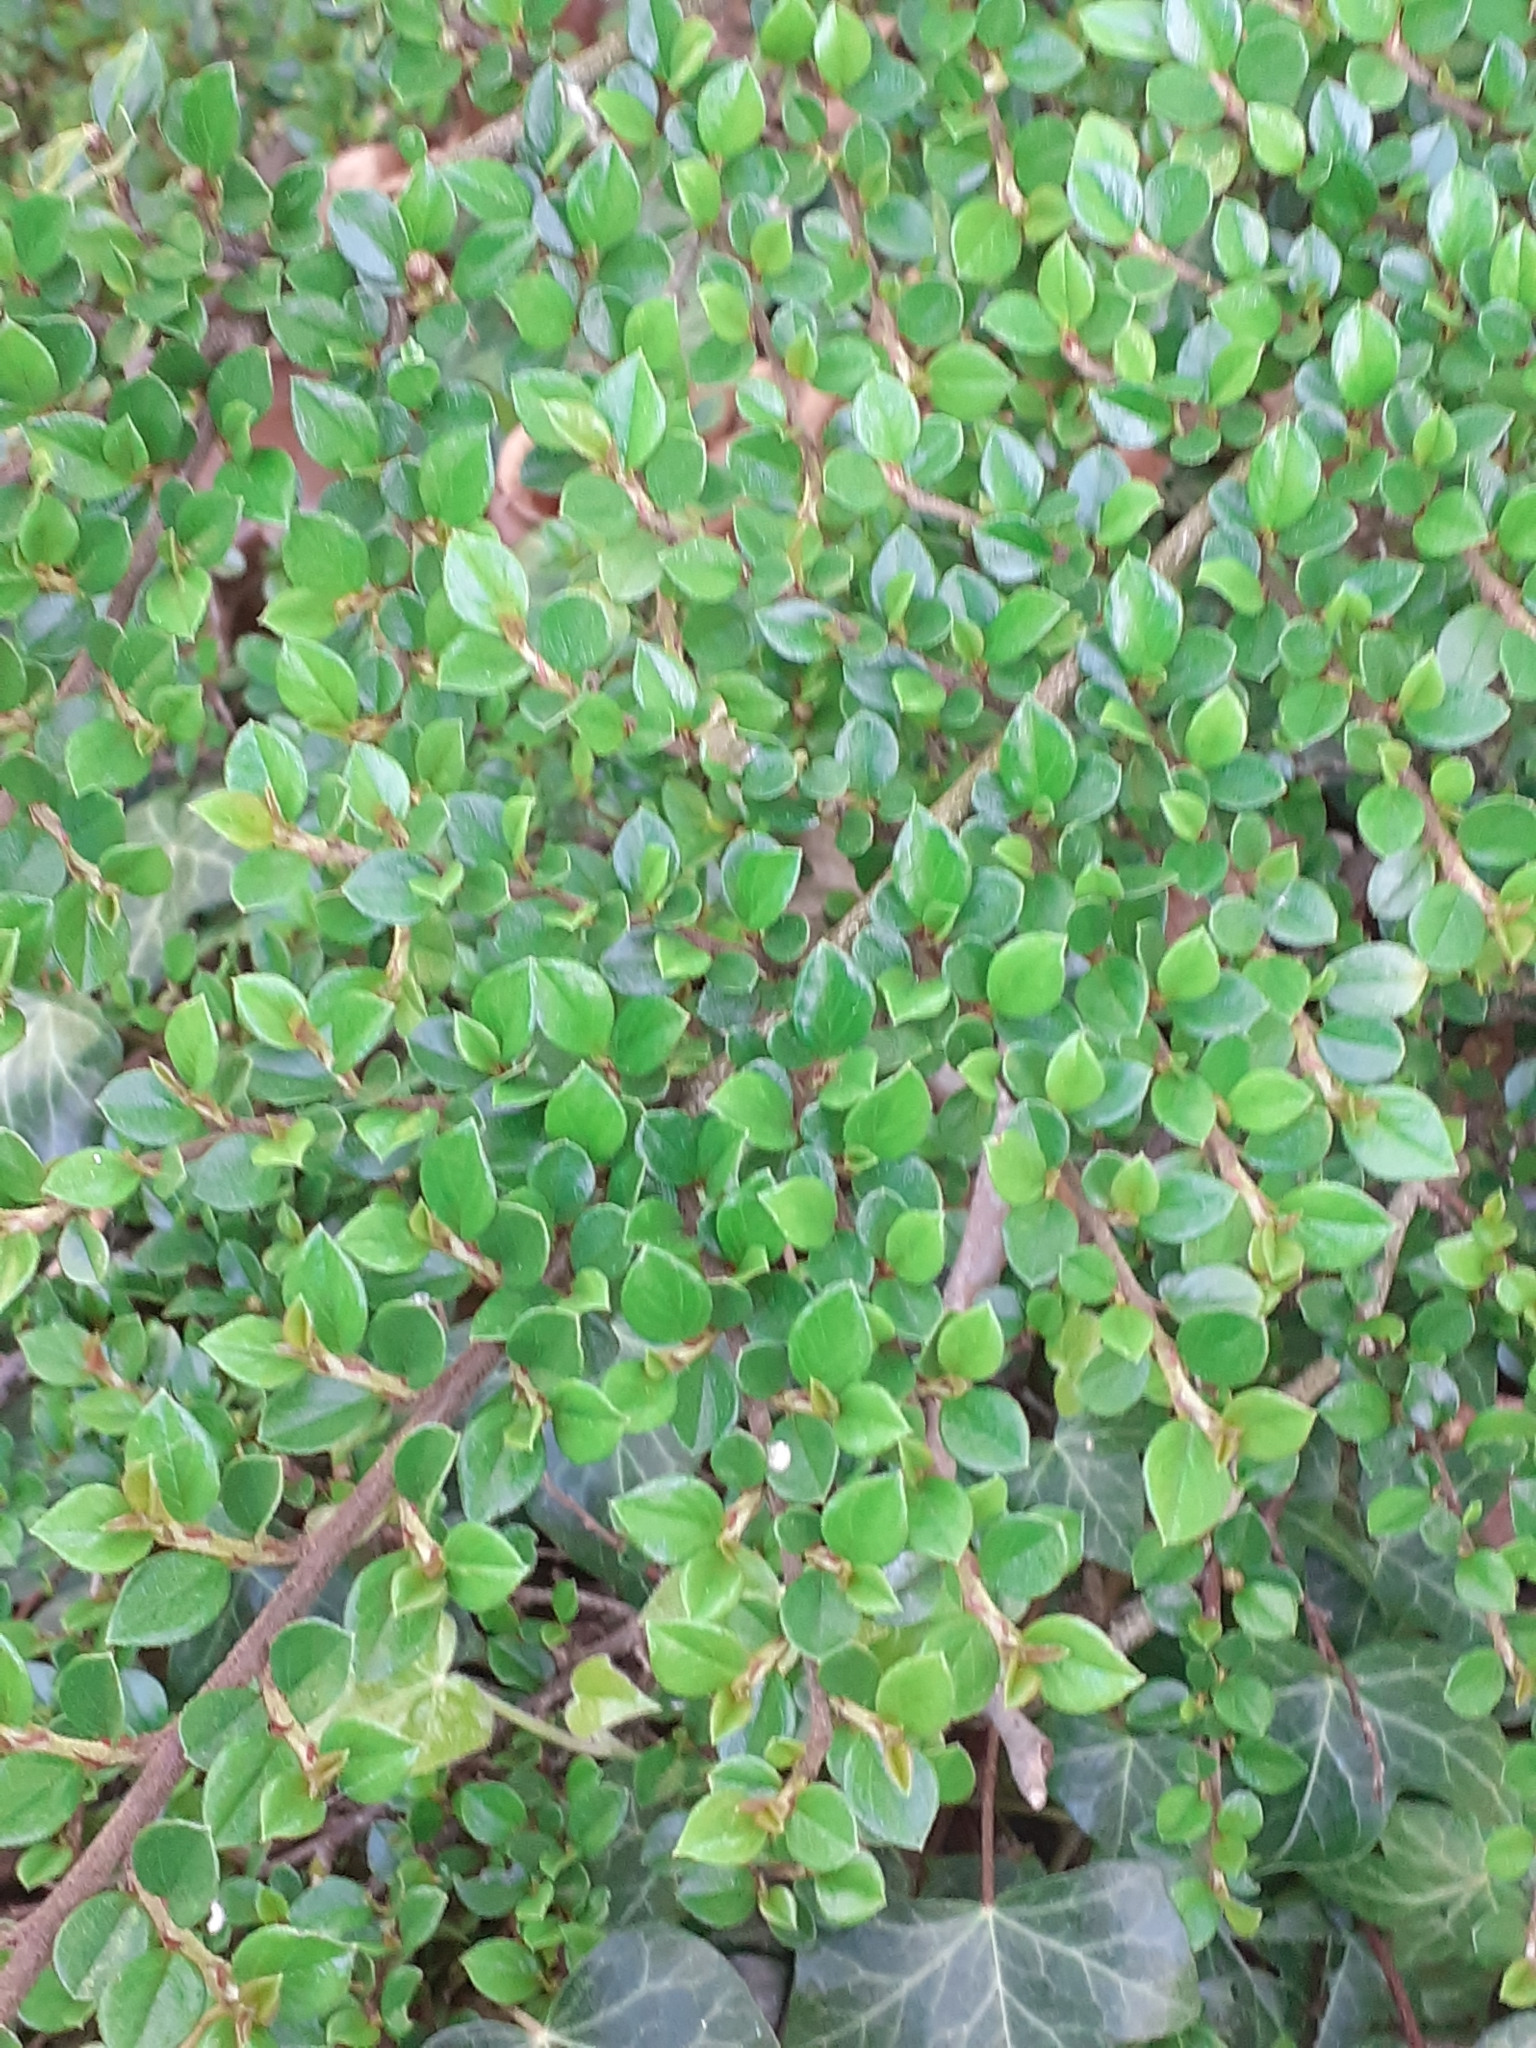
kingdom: Plantae
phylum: Tracheophyta
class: Magnoliopsida
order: Rosales
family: Rosaceae
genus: Cotoneaster
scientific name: Cotoneaster horizontalis
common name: Wall cotoneaster
